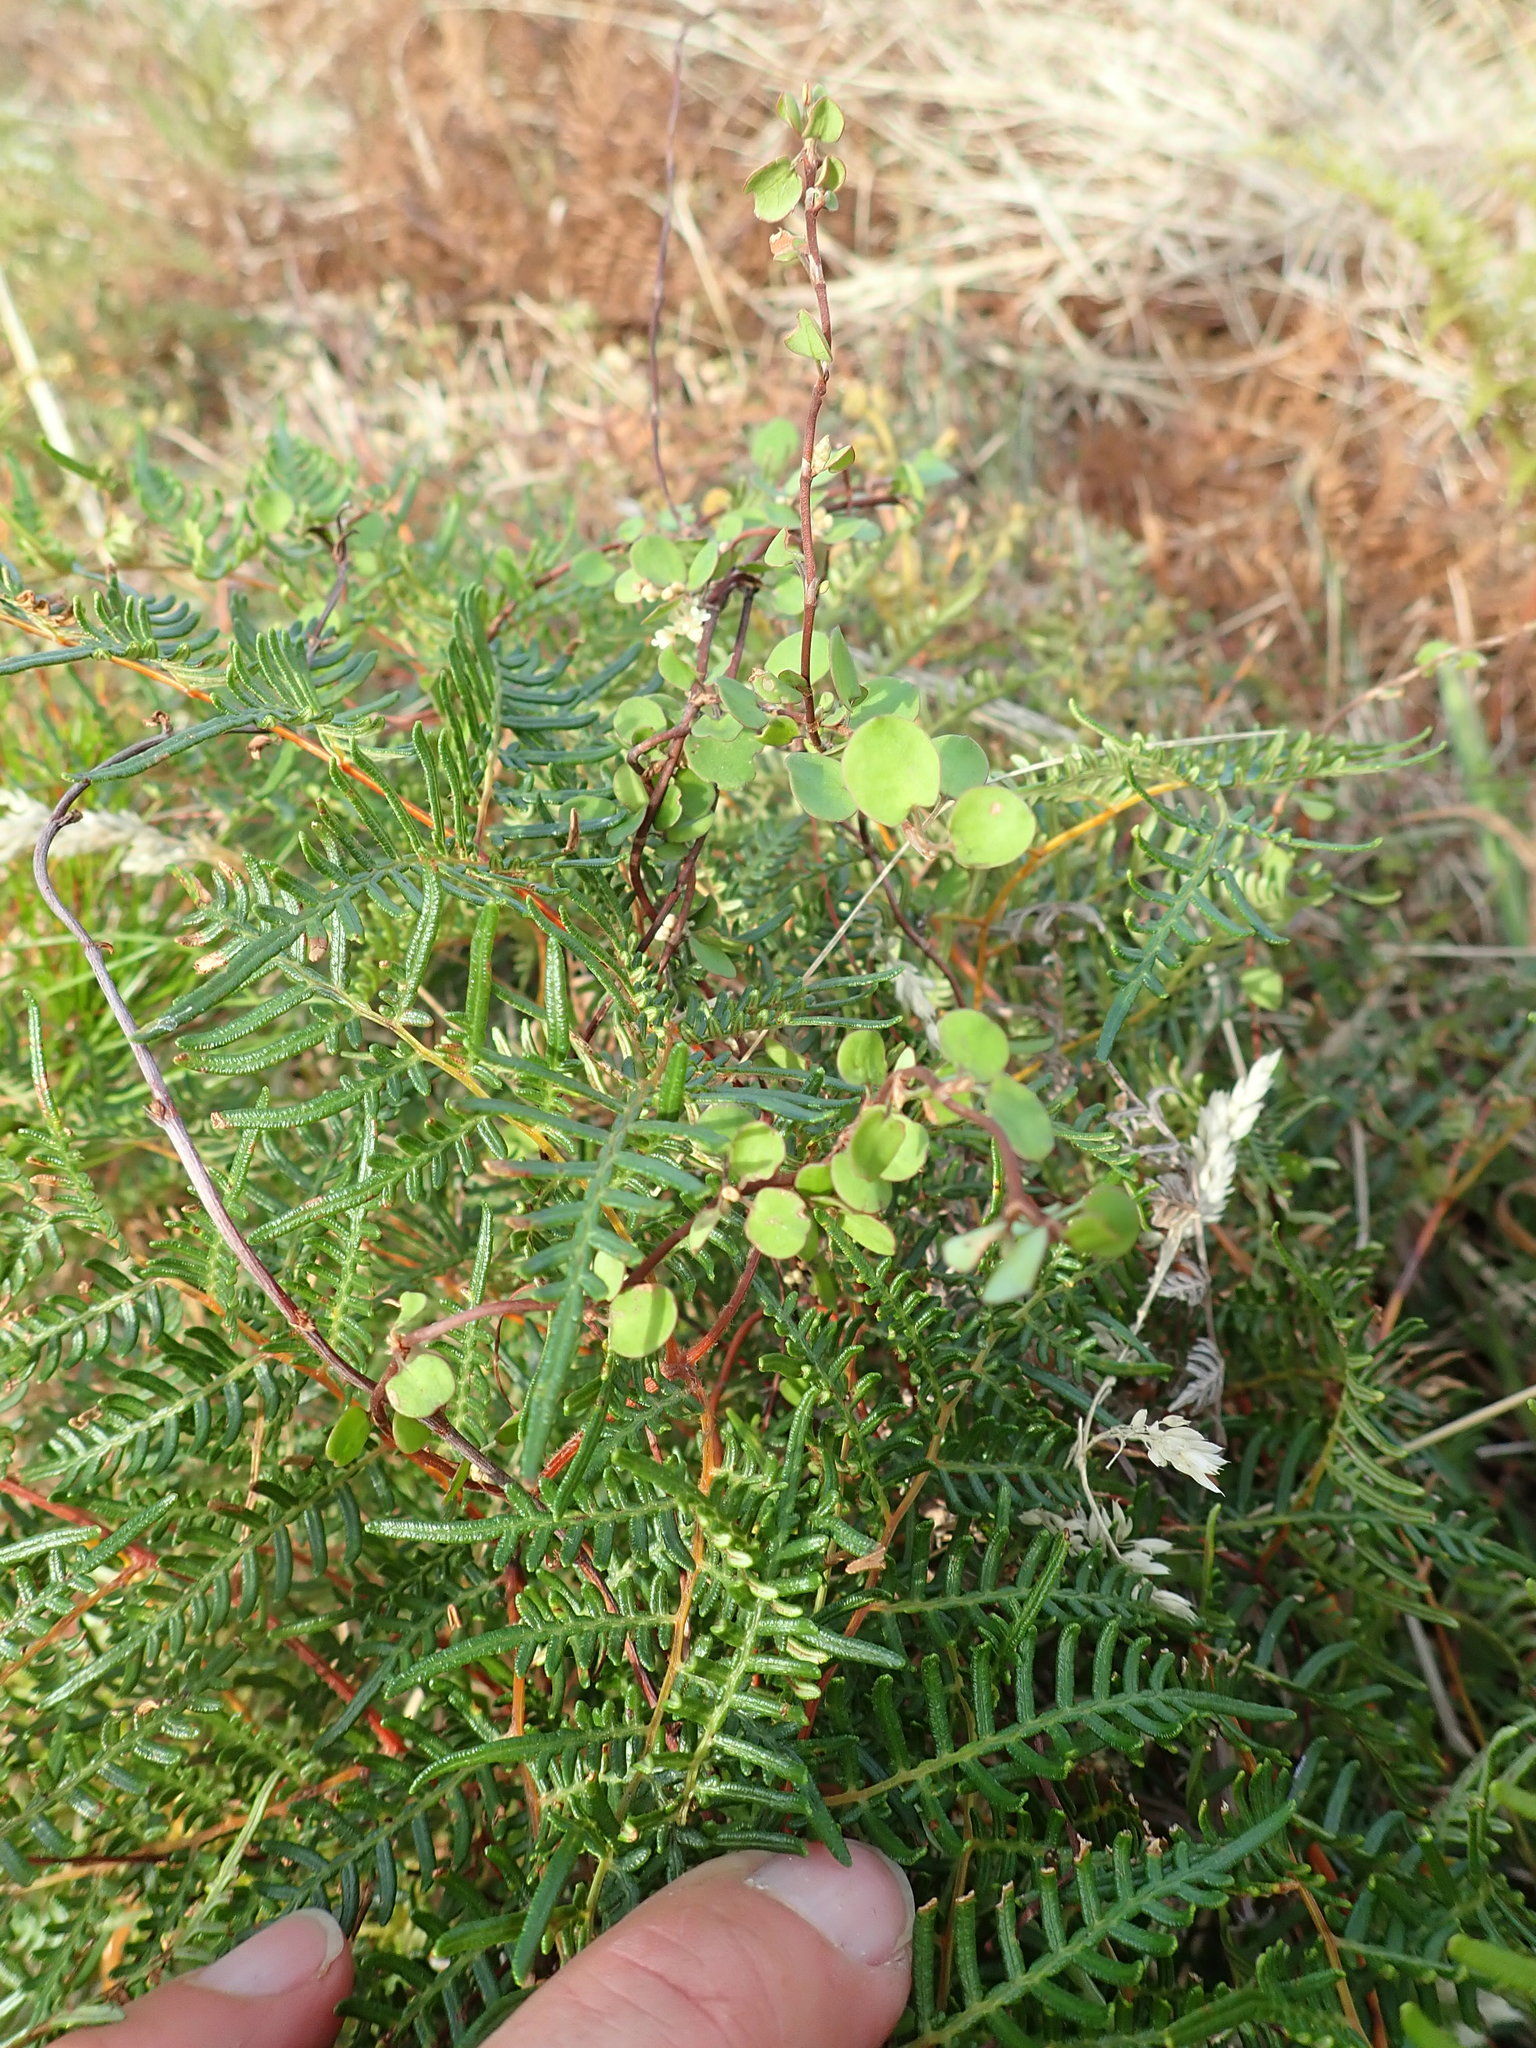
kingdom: Plantae
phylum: Tracheophyta
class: Magnoliopsida
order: Caryophyllales
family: Polygonaceae
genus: Muehlenbeckia
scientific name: Muehlenbeckia complexa
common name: Wireplant
